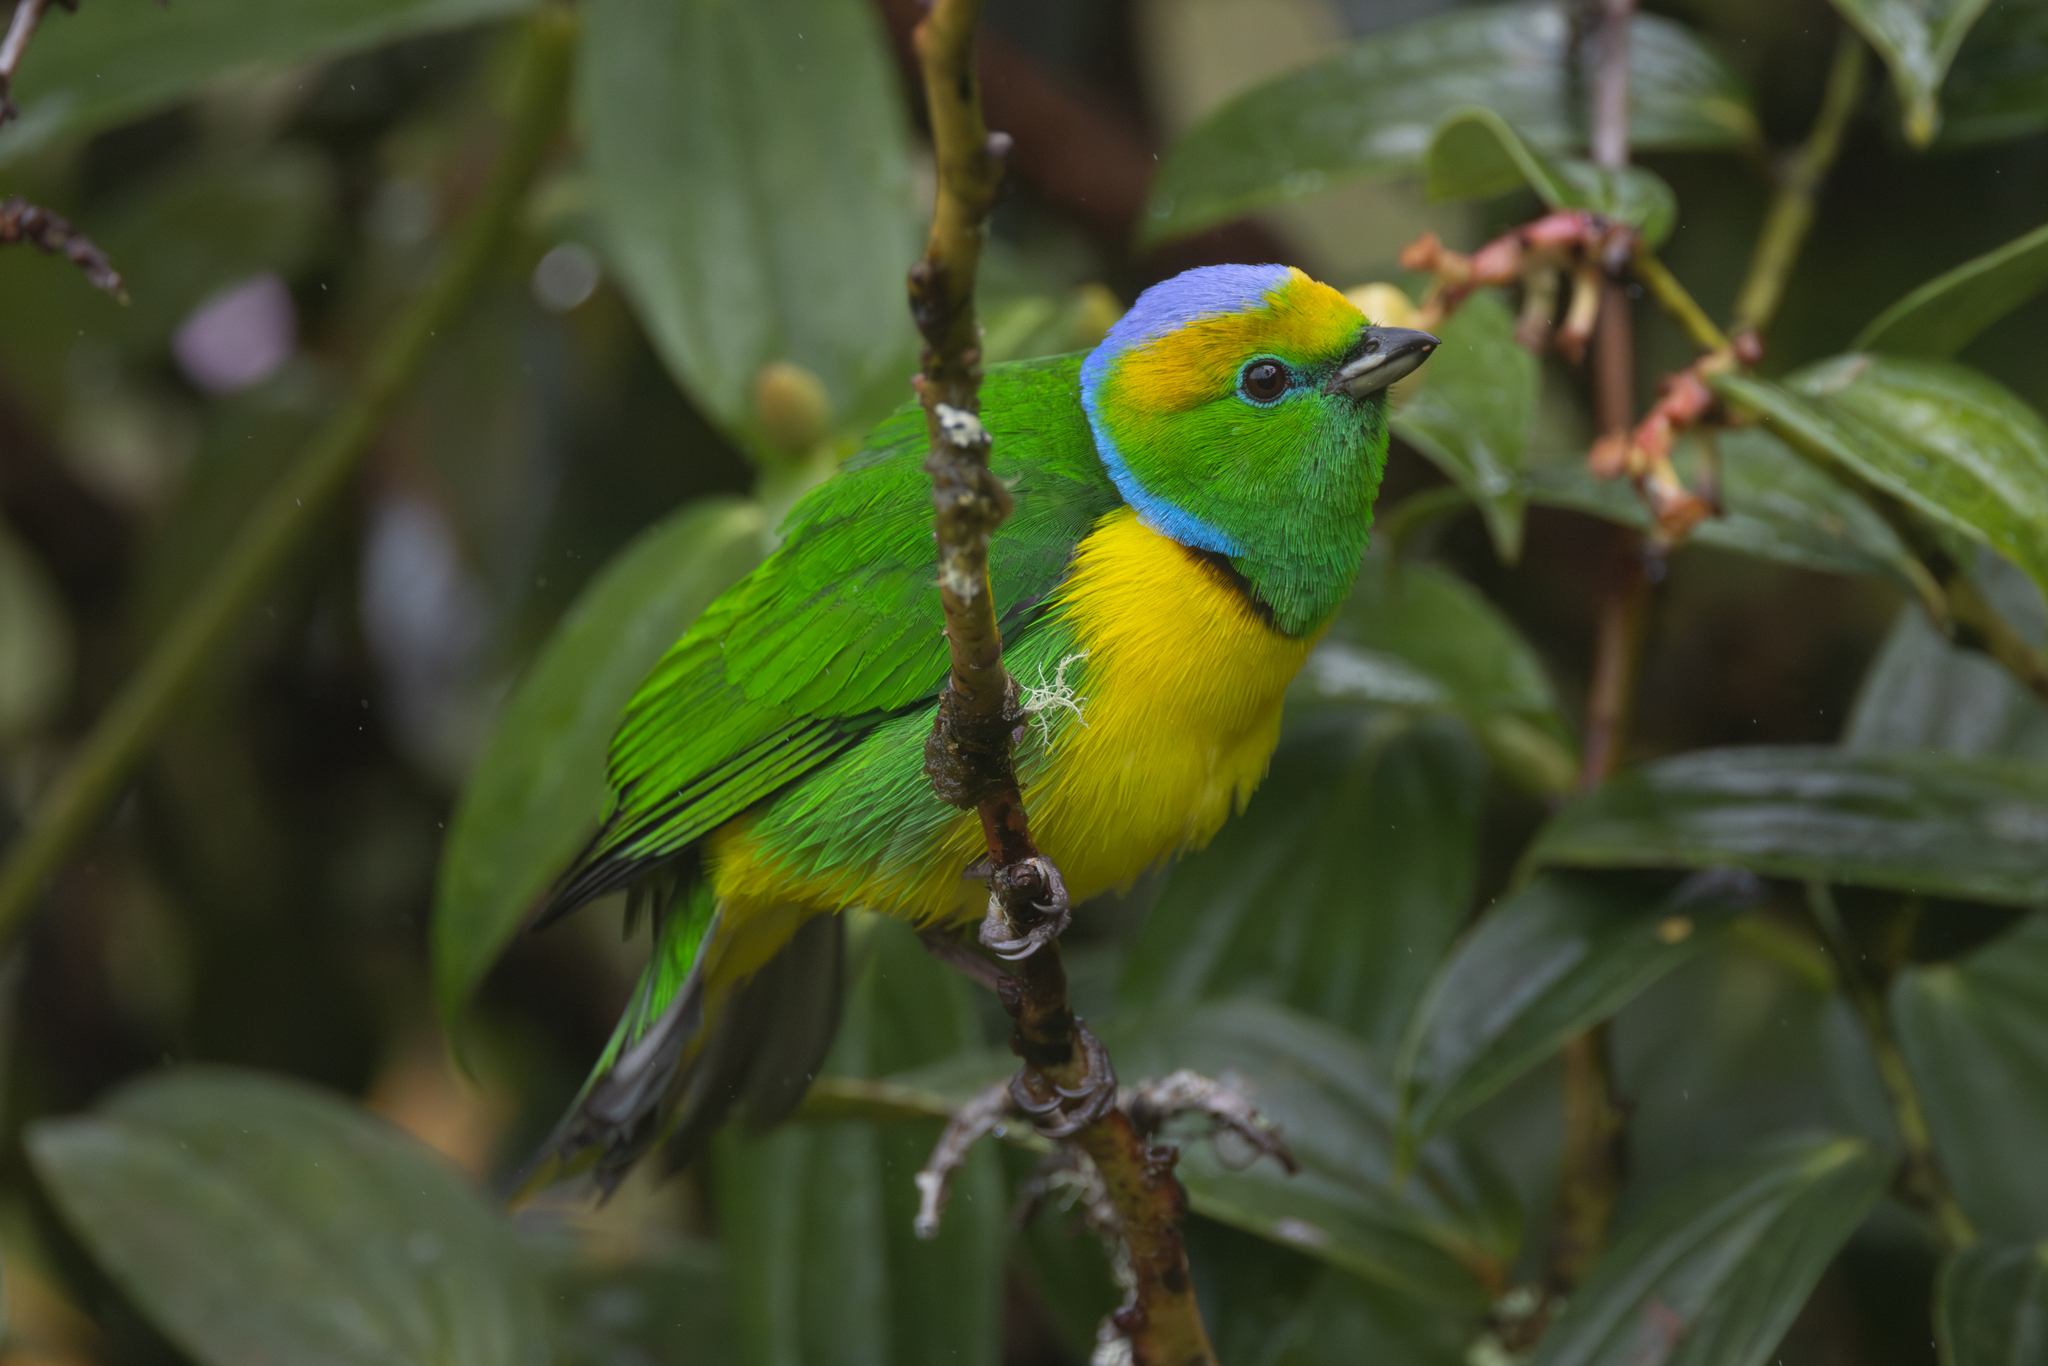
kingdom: Animalia
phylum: Chordata
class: Aves
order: Passeriformes
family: Fringillidae
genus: Chlorophonia
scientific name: Chlorophonia callophrys
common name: Golden-browed chlorophonia
